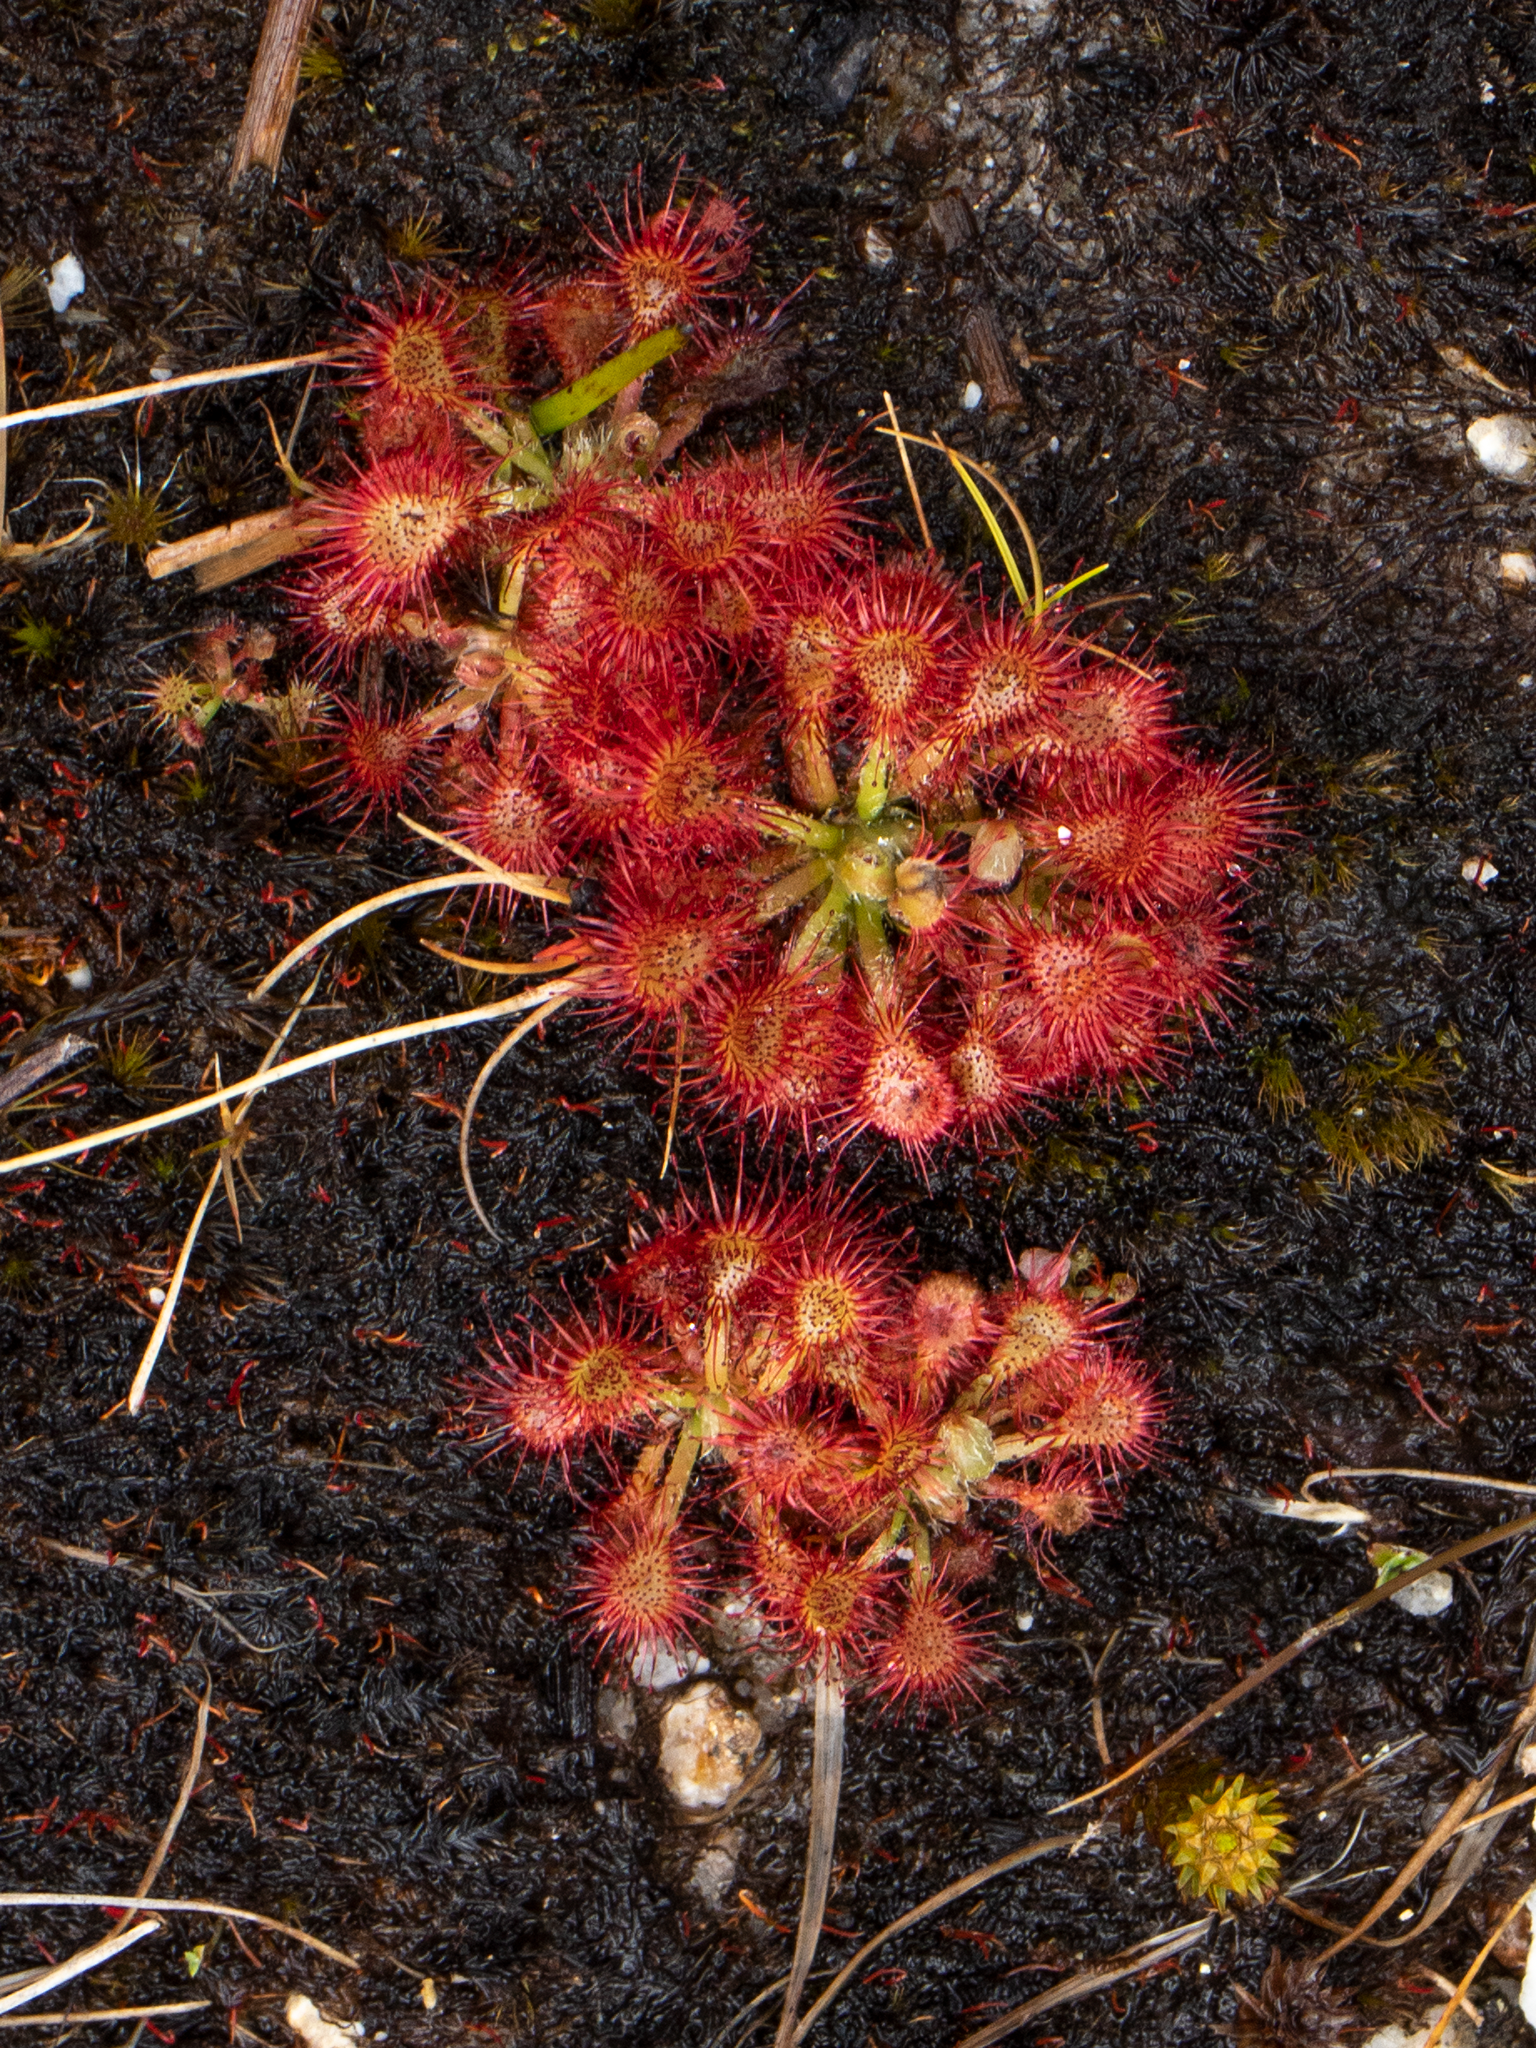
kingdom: Plantae
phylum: Tracheophyta
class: Magnoliopsida
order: Caryophyllales
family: Droseraceae
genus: Drosera
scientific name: Drosera spatulata
